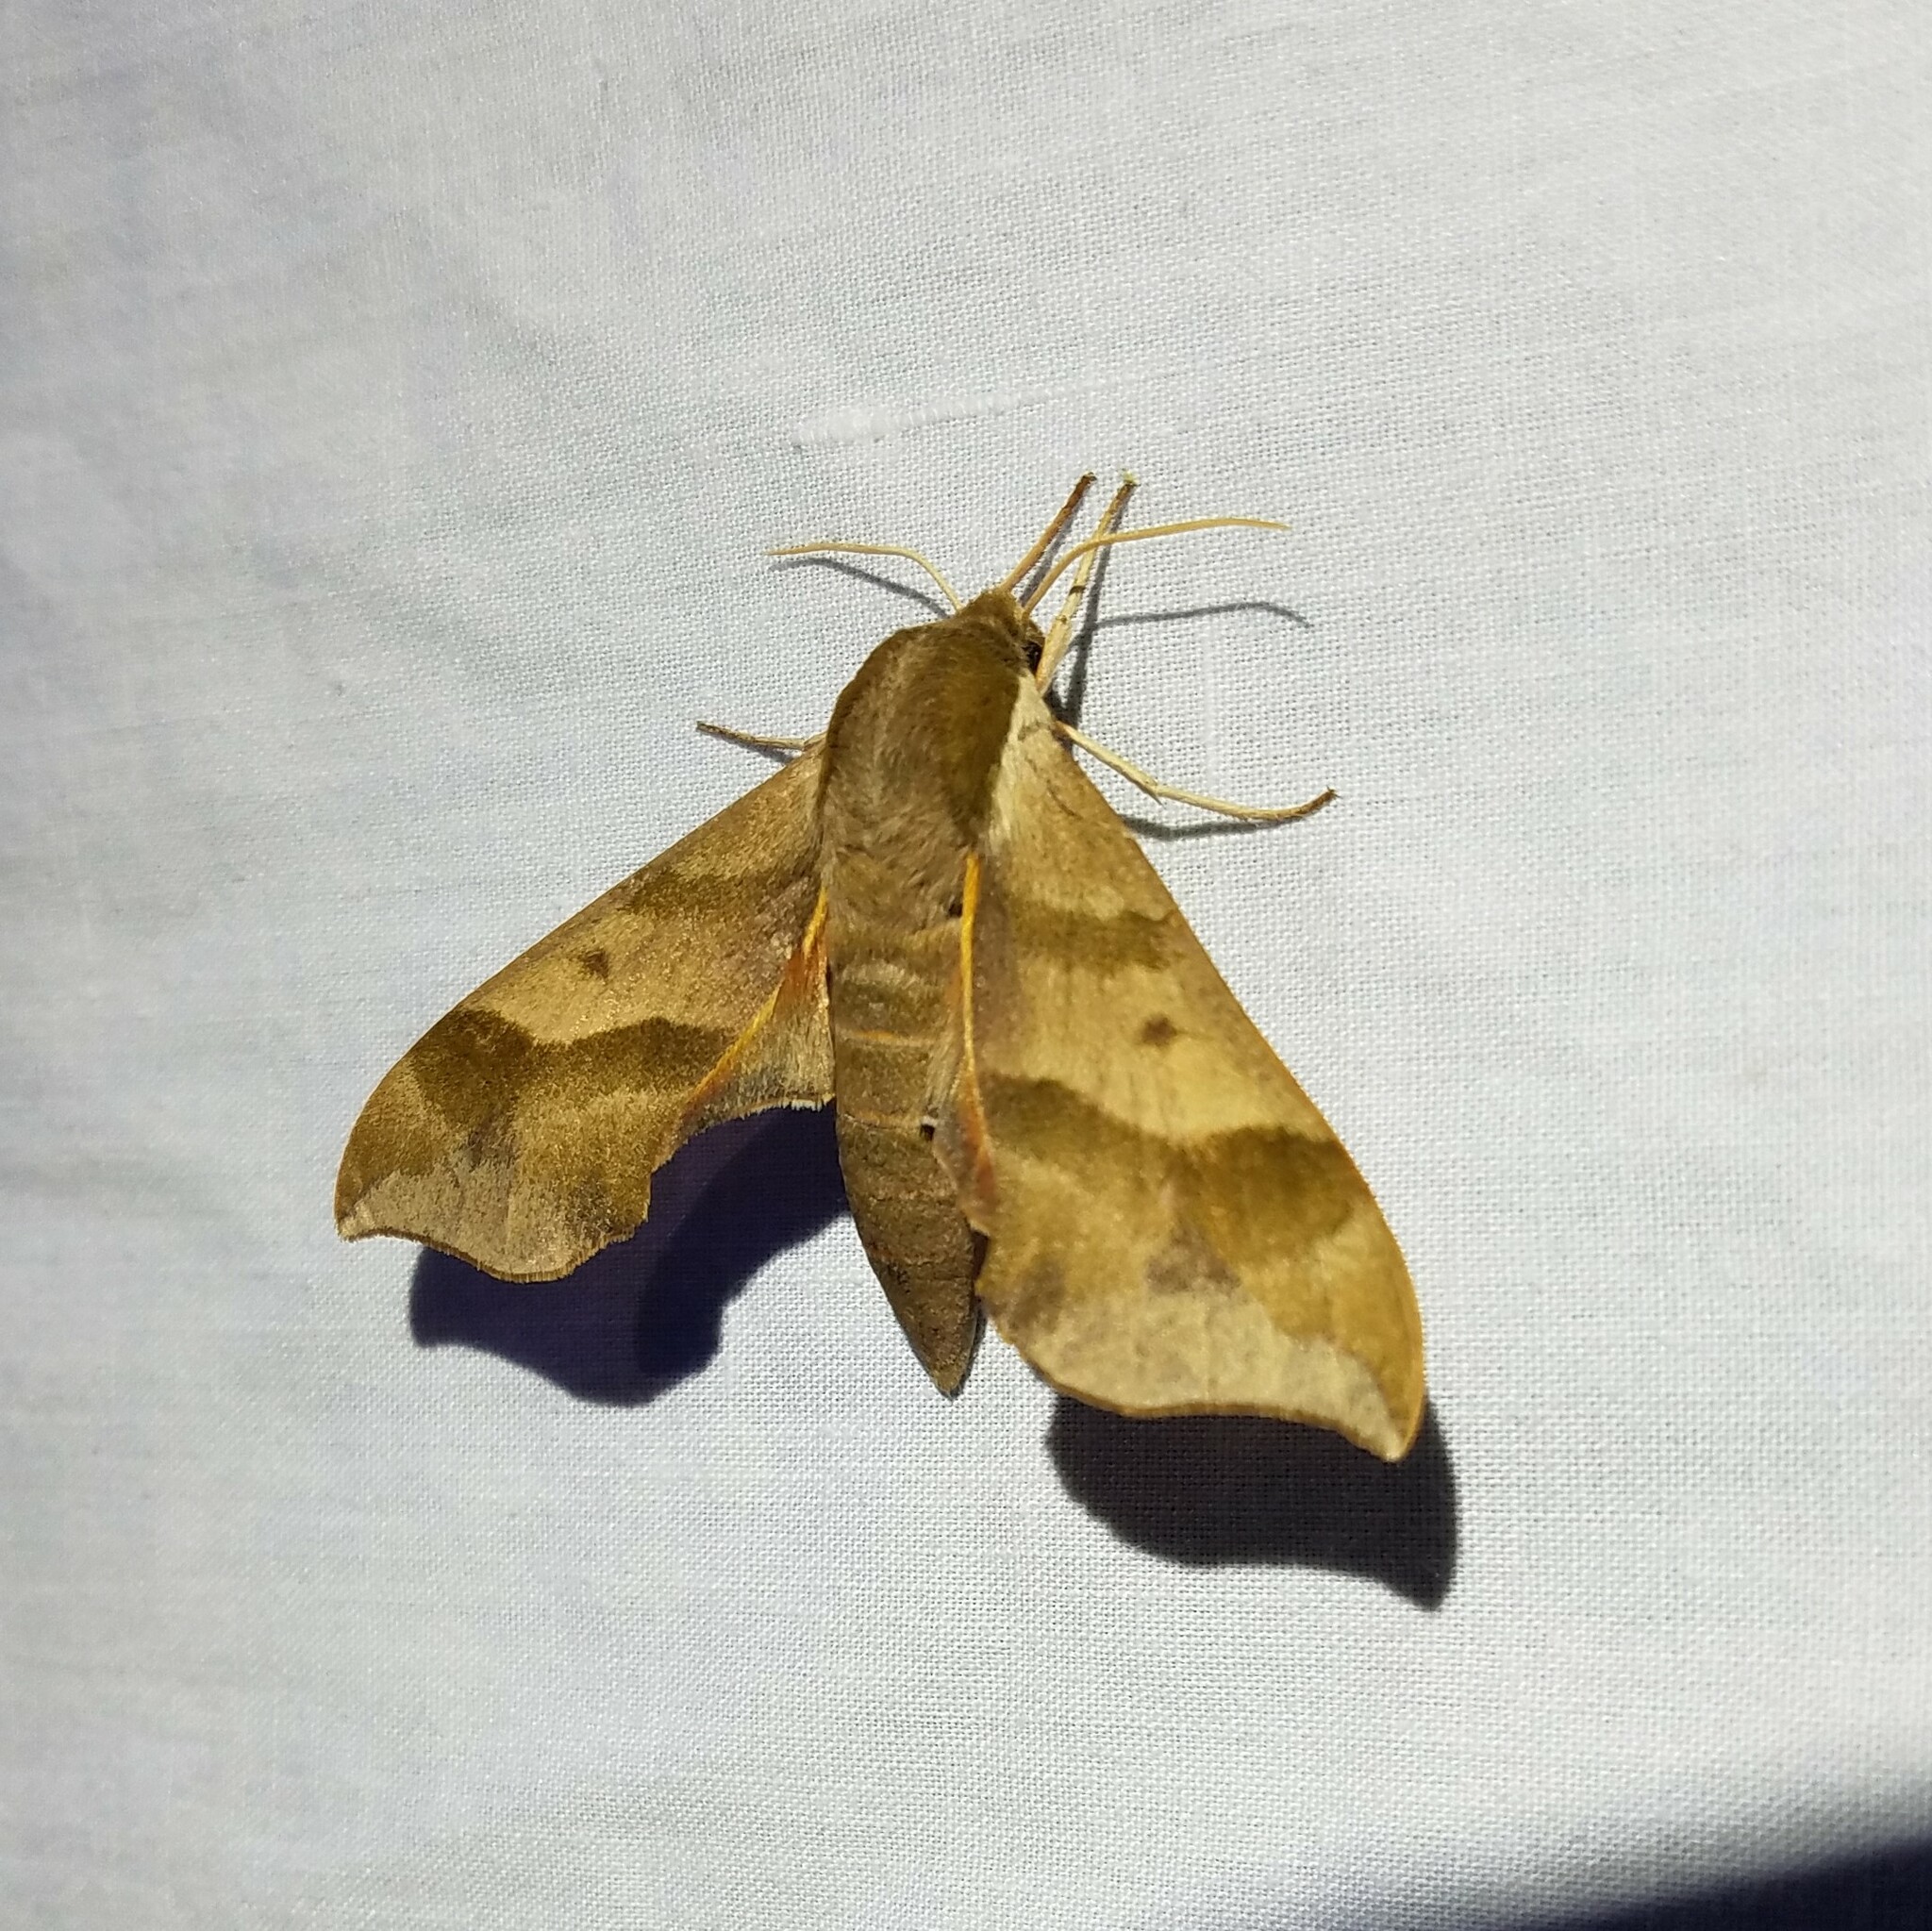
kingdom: Animalia
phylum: Arthropoda
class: Insecta
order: Lepidoptera
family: Sphingidae
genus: Darapsa
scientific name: Darapsa myron
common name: Hog sphinx
